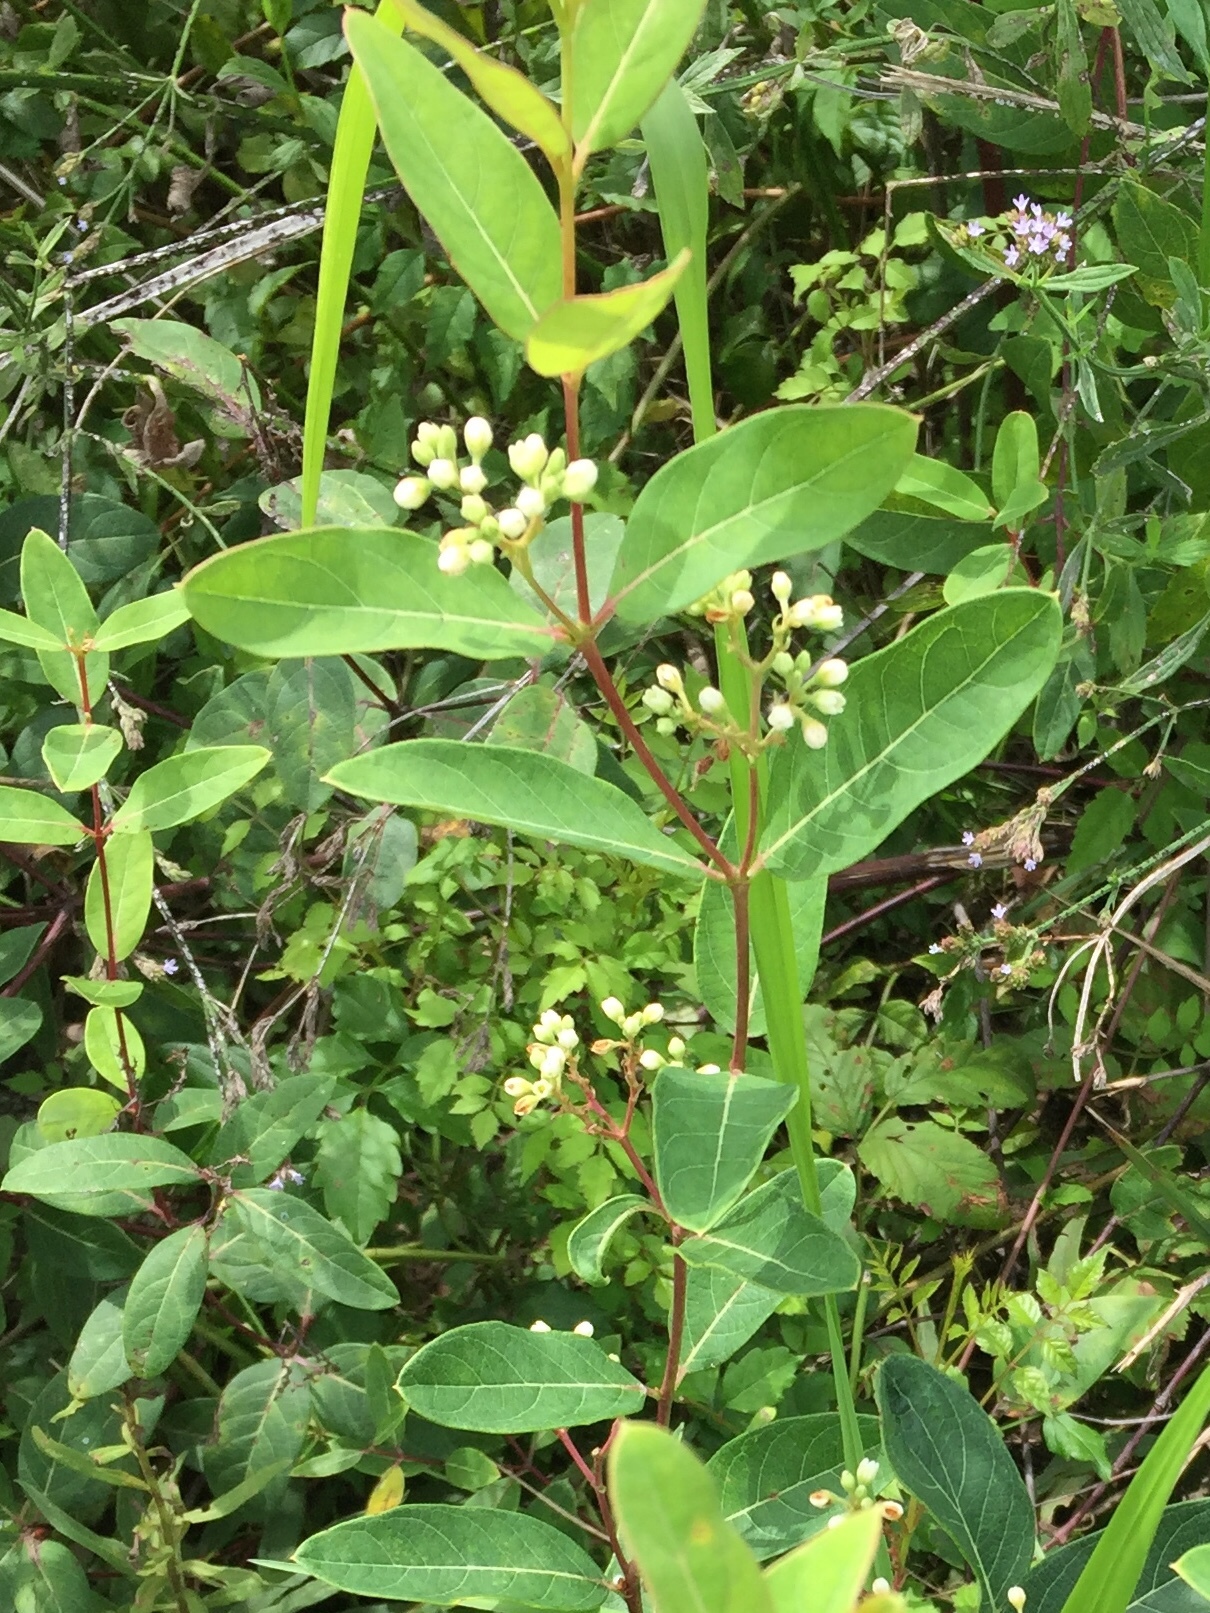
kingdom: Plantae
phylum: Tracheophyta
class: Magnoliopsida
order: Gentianales
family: Apocynaceae
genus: Apocynum
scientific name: Apocynum cannabinum
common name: Hemp dogbane
